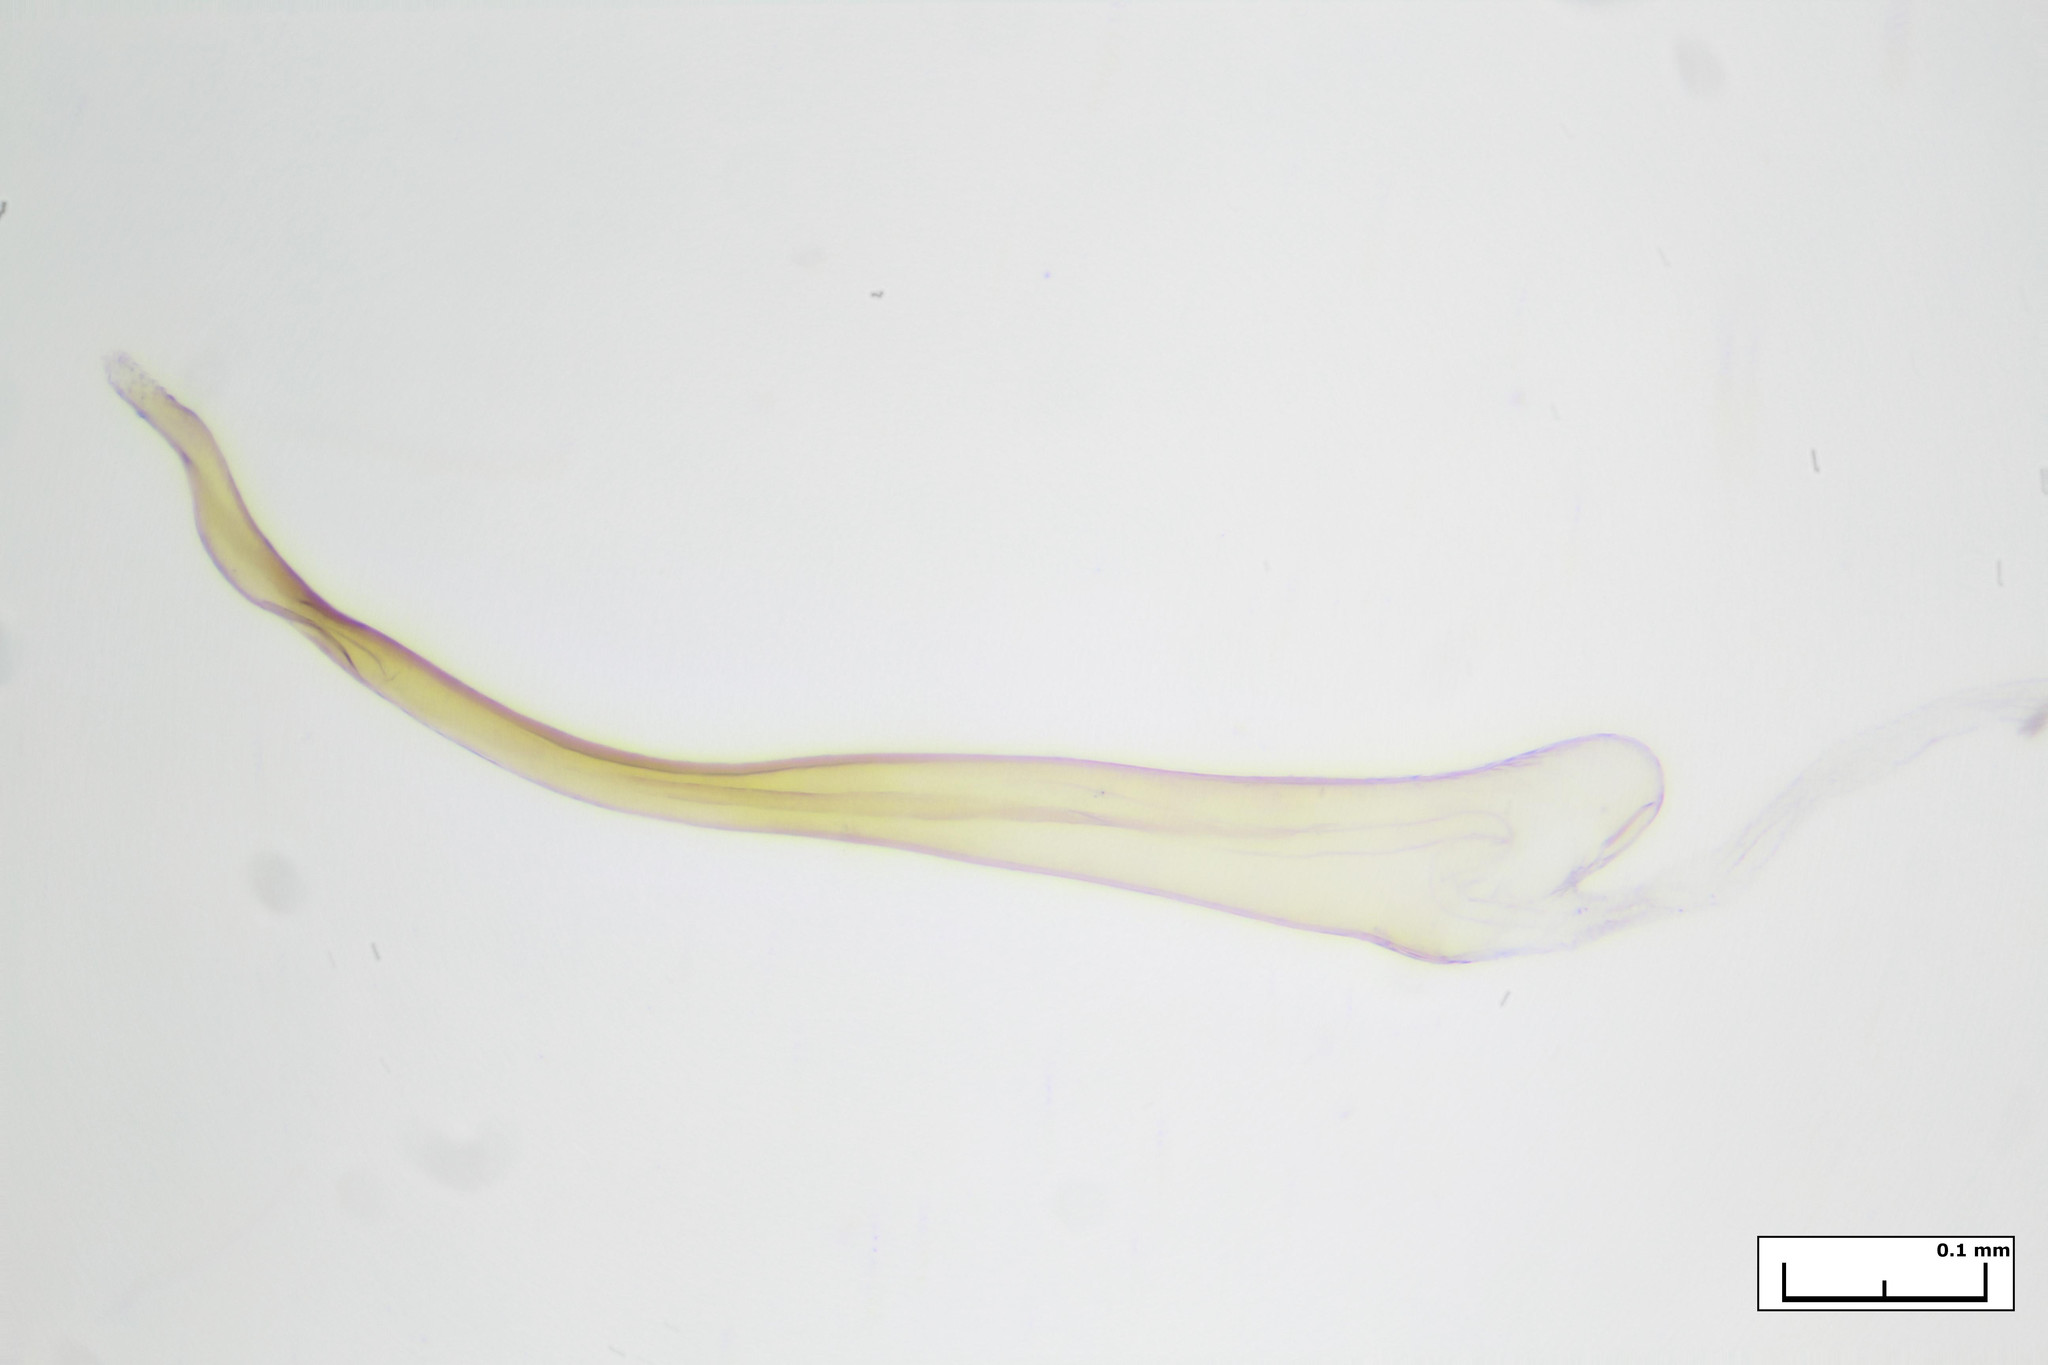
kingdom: Animalia
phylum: Arthropoda
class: Insecta
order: Lepidoptera
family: Pterophoridae
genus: Sphenarches
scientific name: Sphenarches anisodactylus
